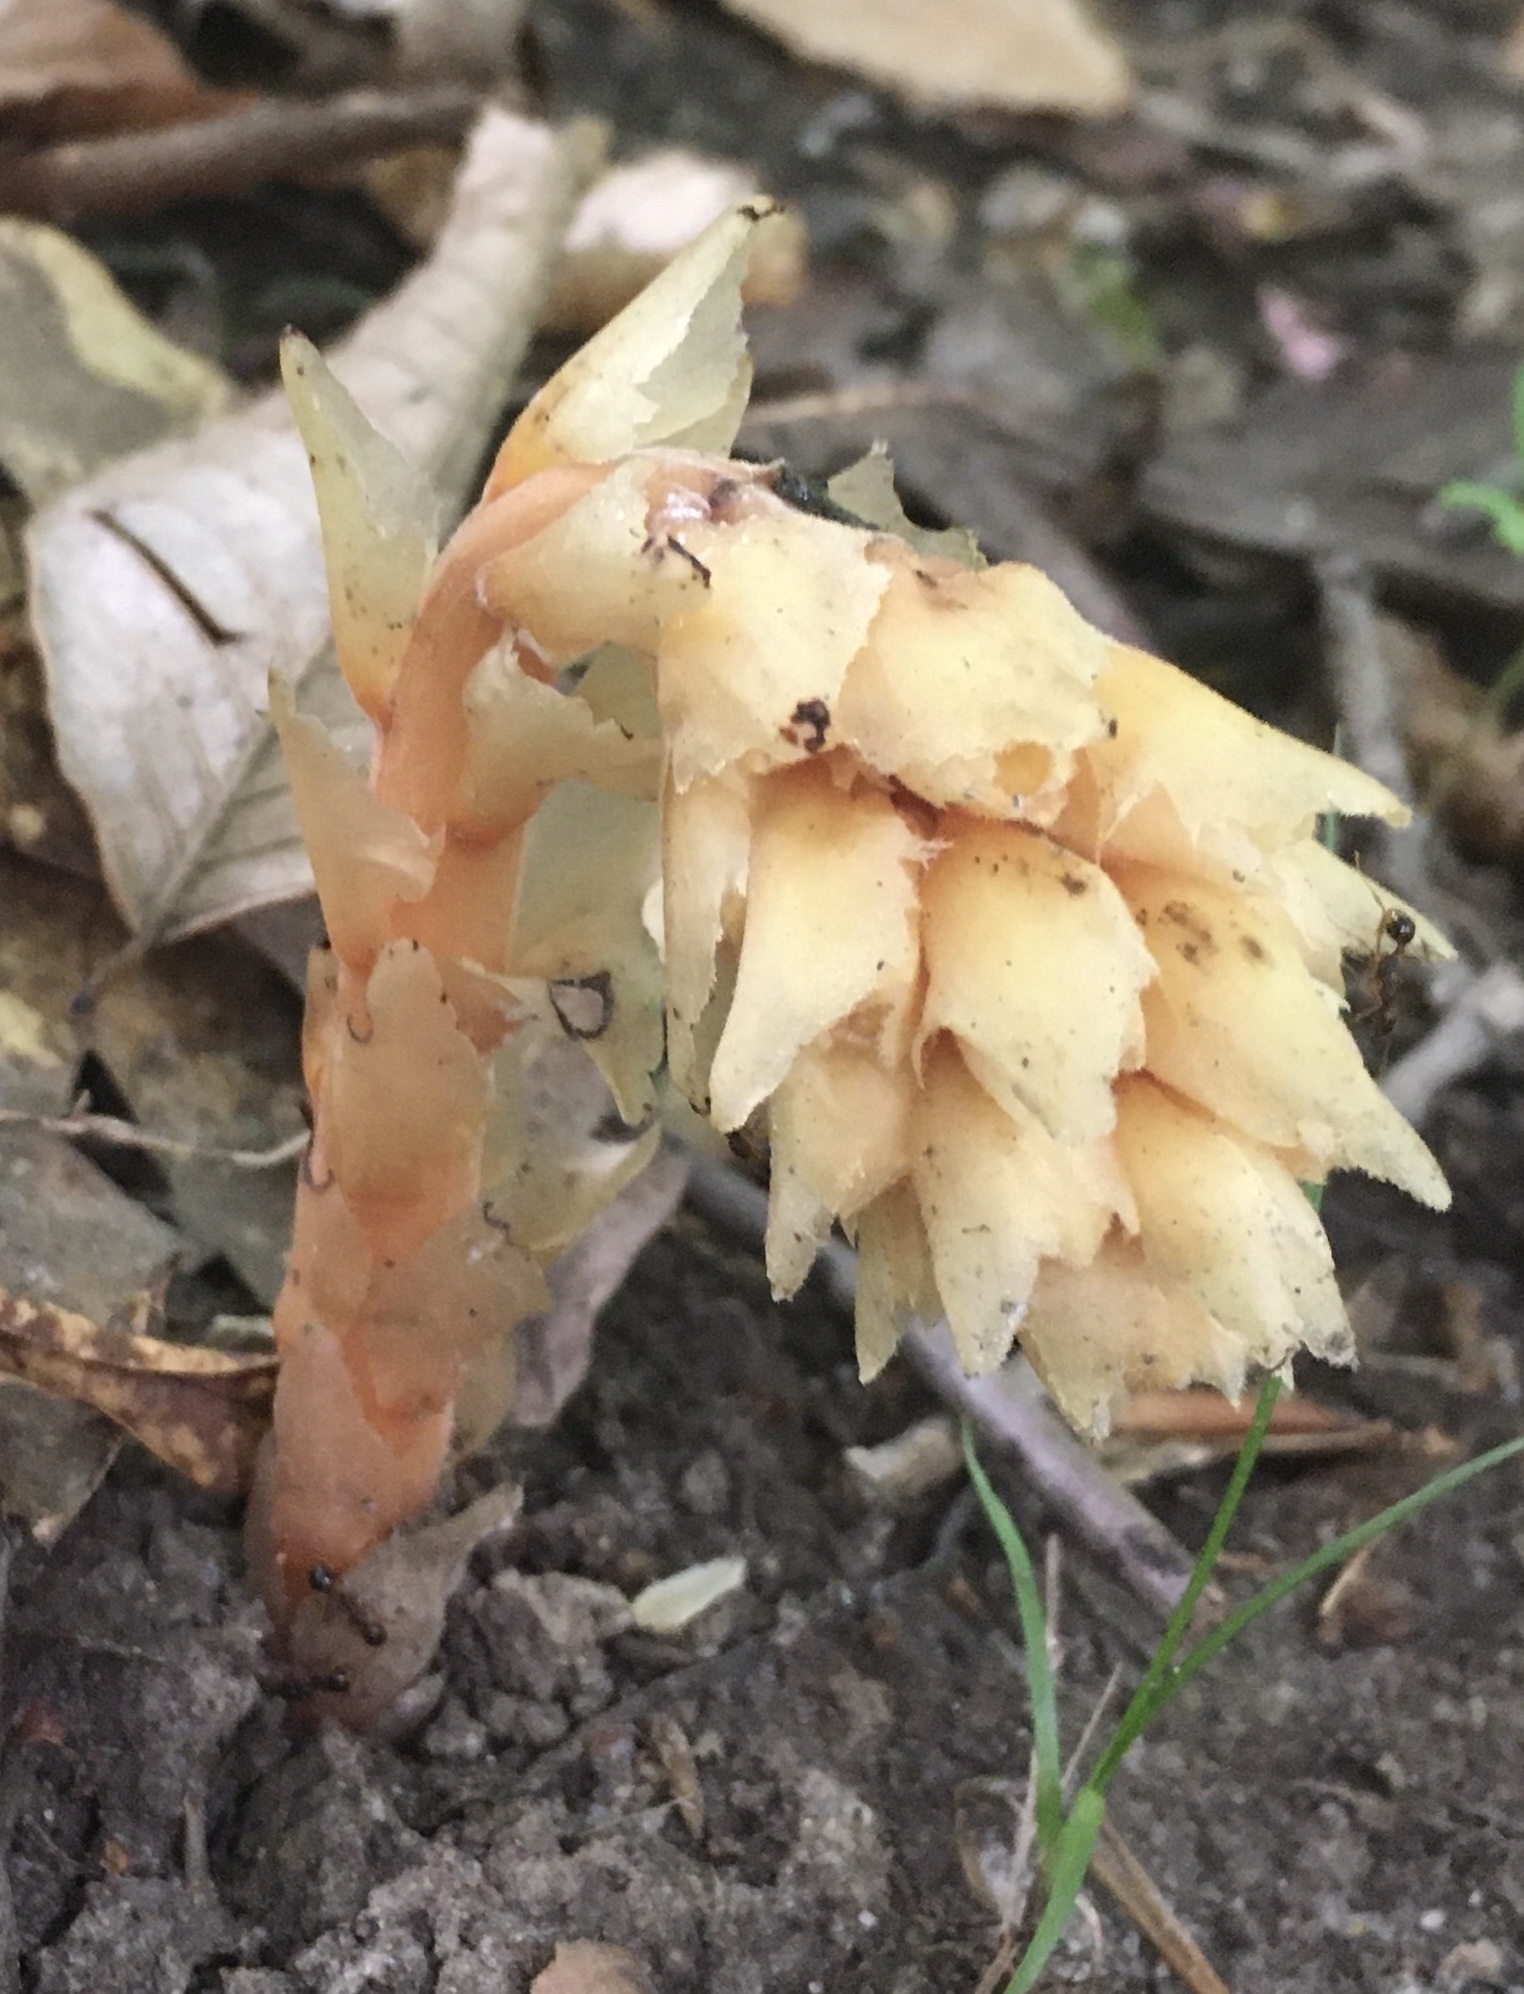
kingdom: Plantae
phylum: Tracheophyta
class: Magnoliopsida
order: Ericales
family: Ericaceae
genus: Hypopitys
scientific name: Hypopitys monotropa
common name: Yellow bird's-nest
